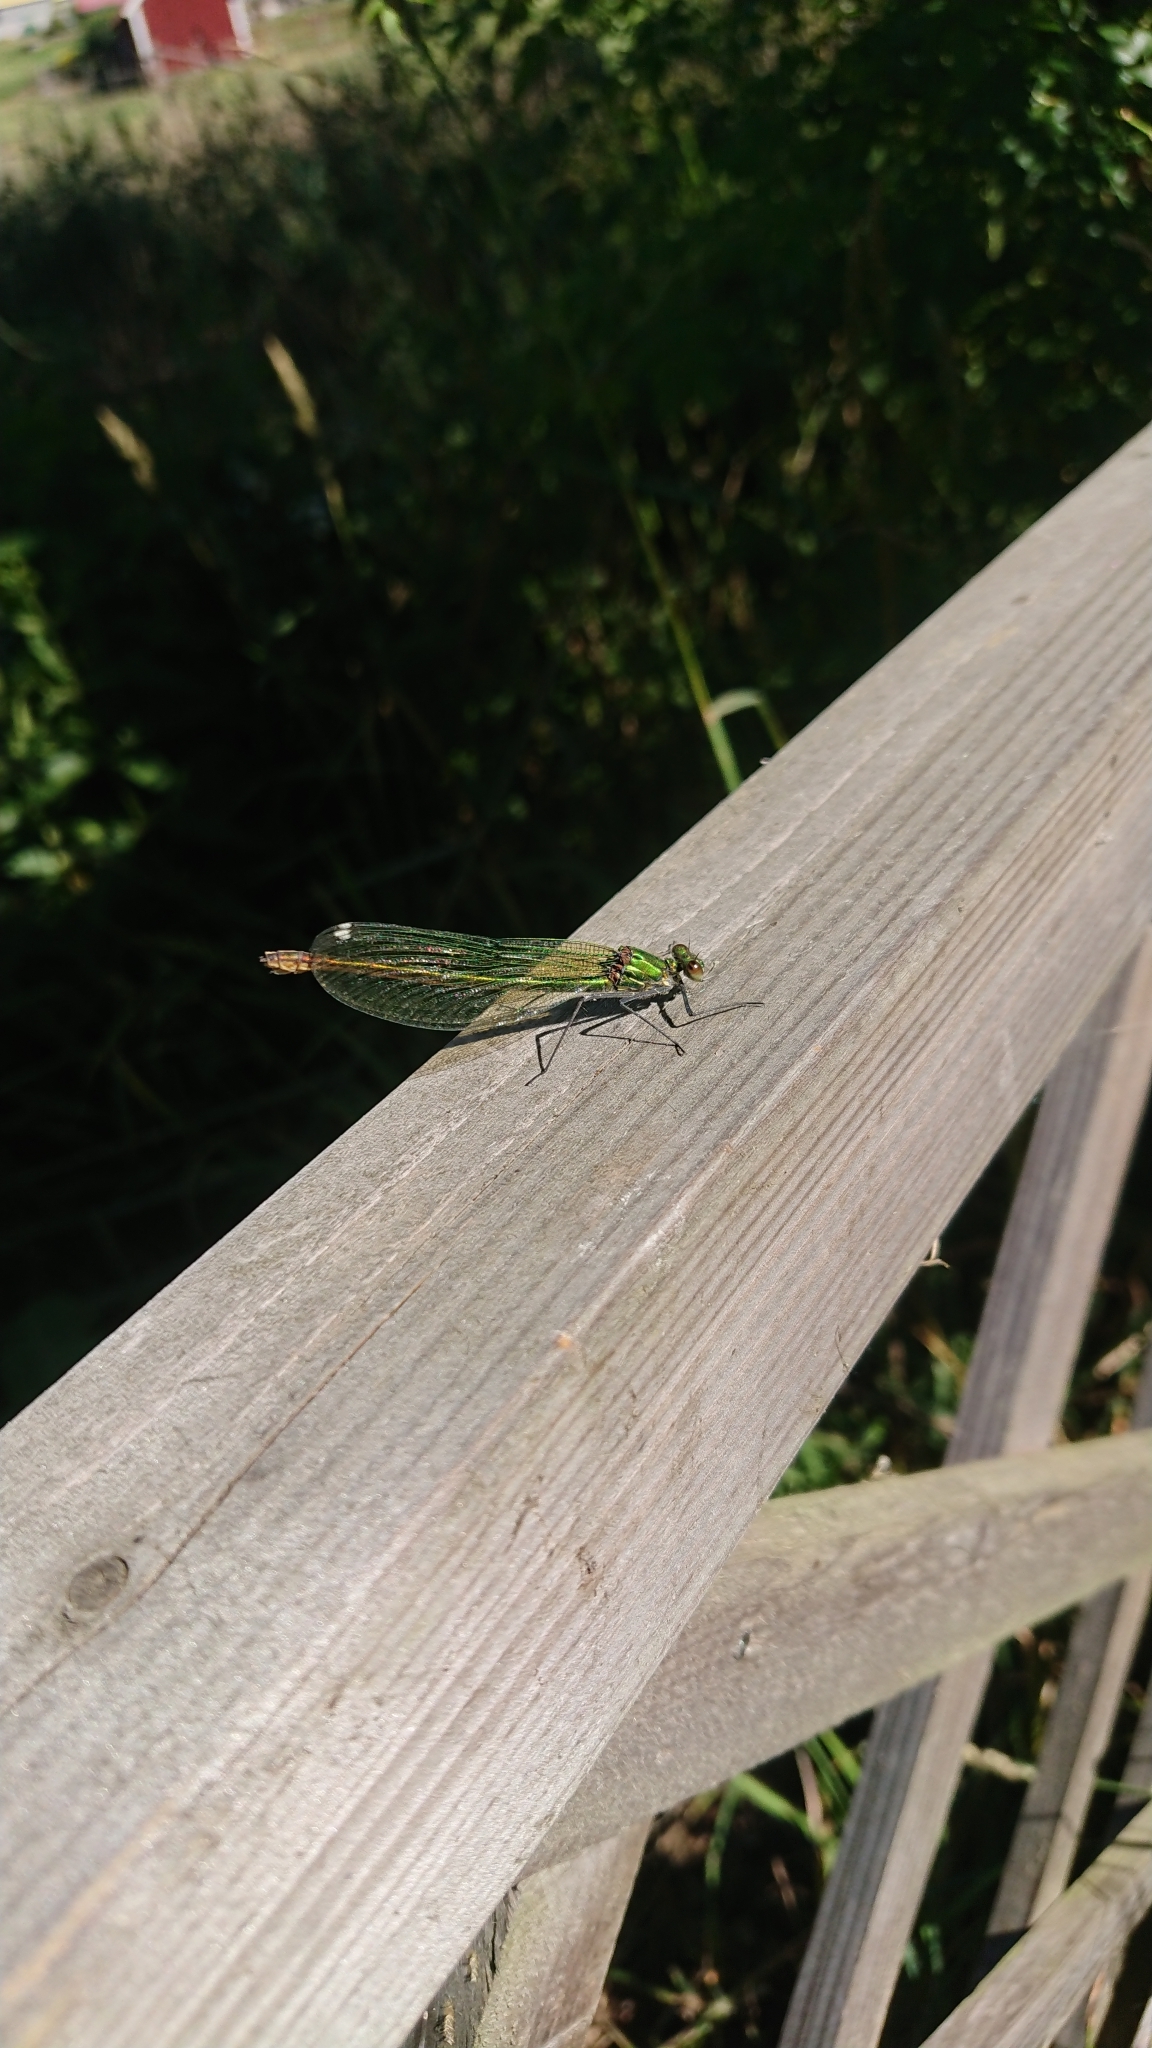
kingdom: Animalia
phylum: Arthropoda
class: Insecta
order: Odonata
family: Calopterygidae
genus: Calopteryx
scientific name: Calopteryx splendens
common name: Banded demoiselle
